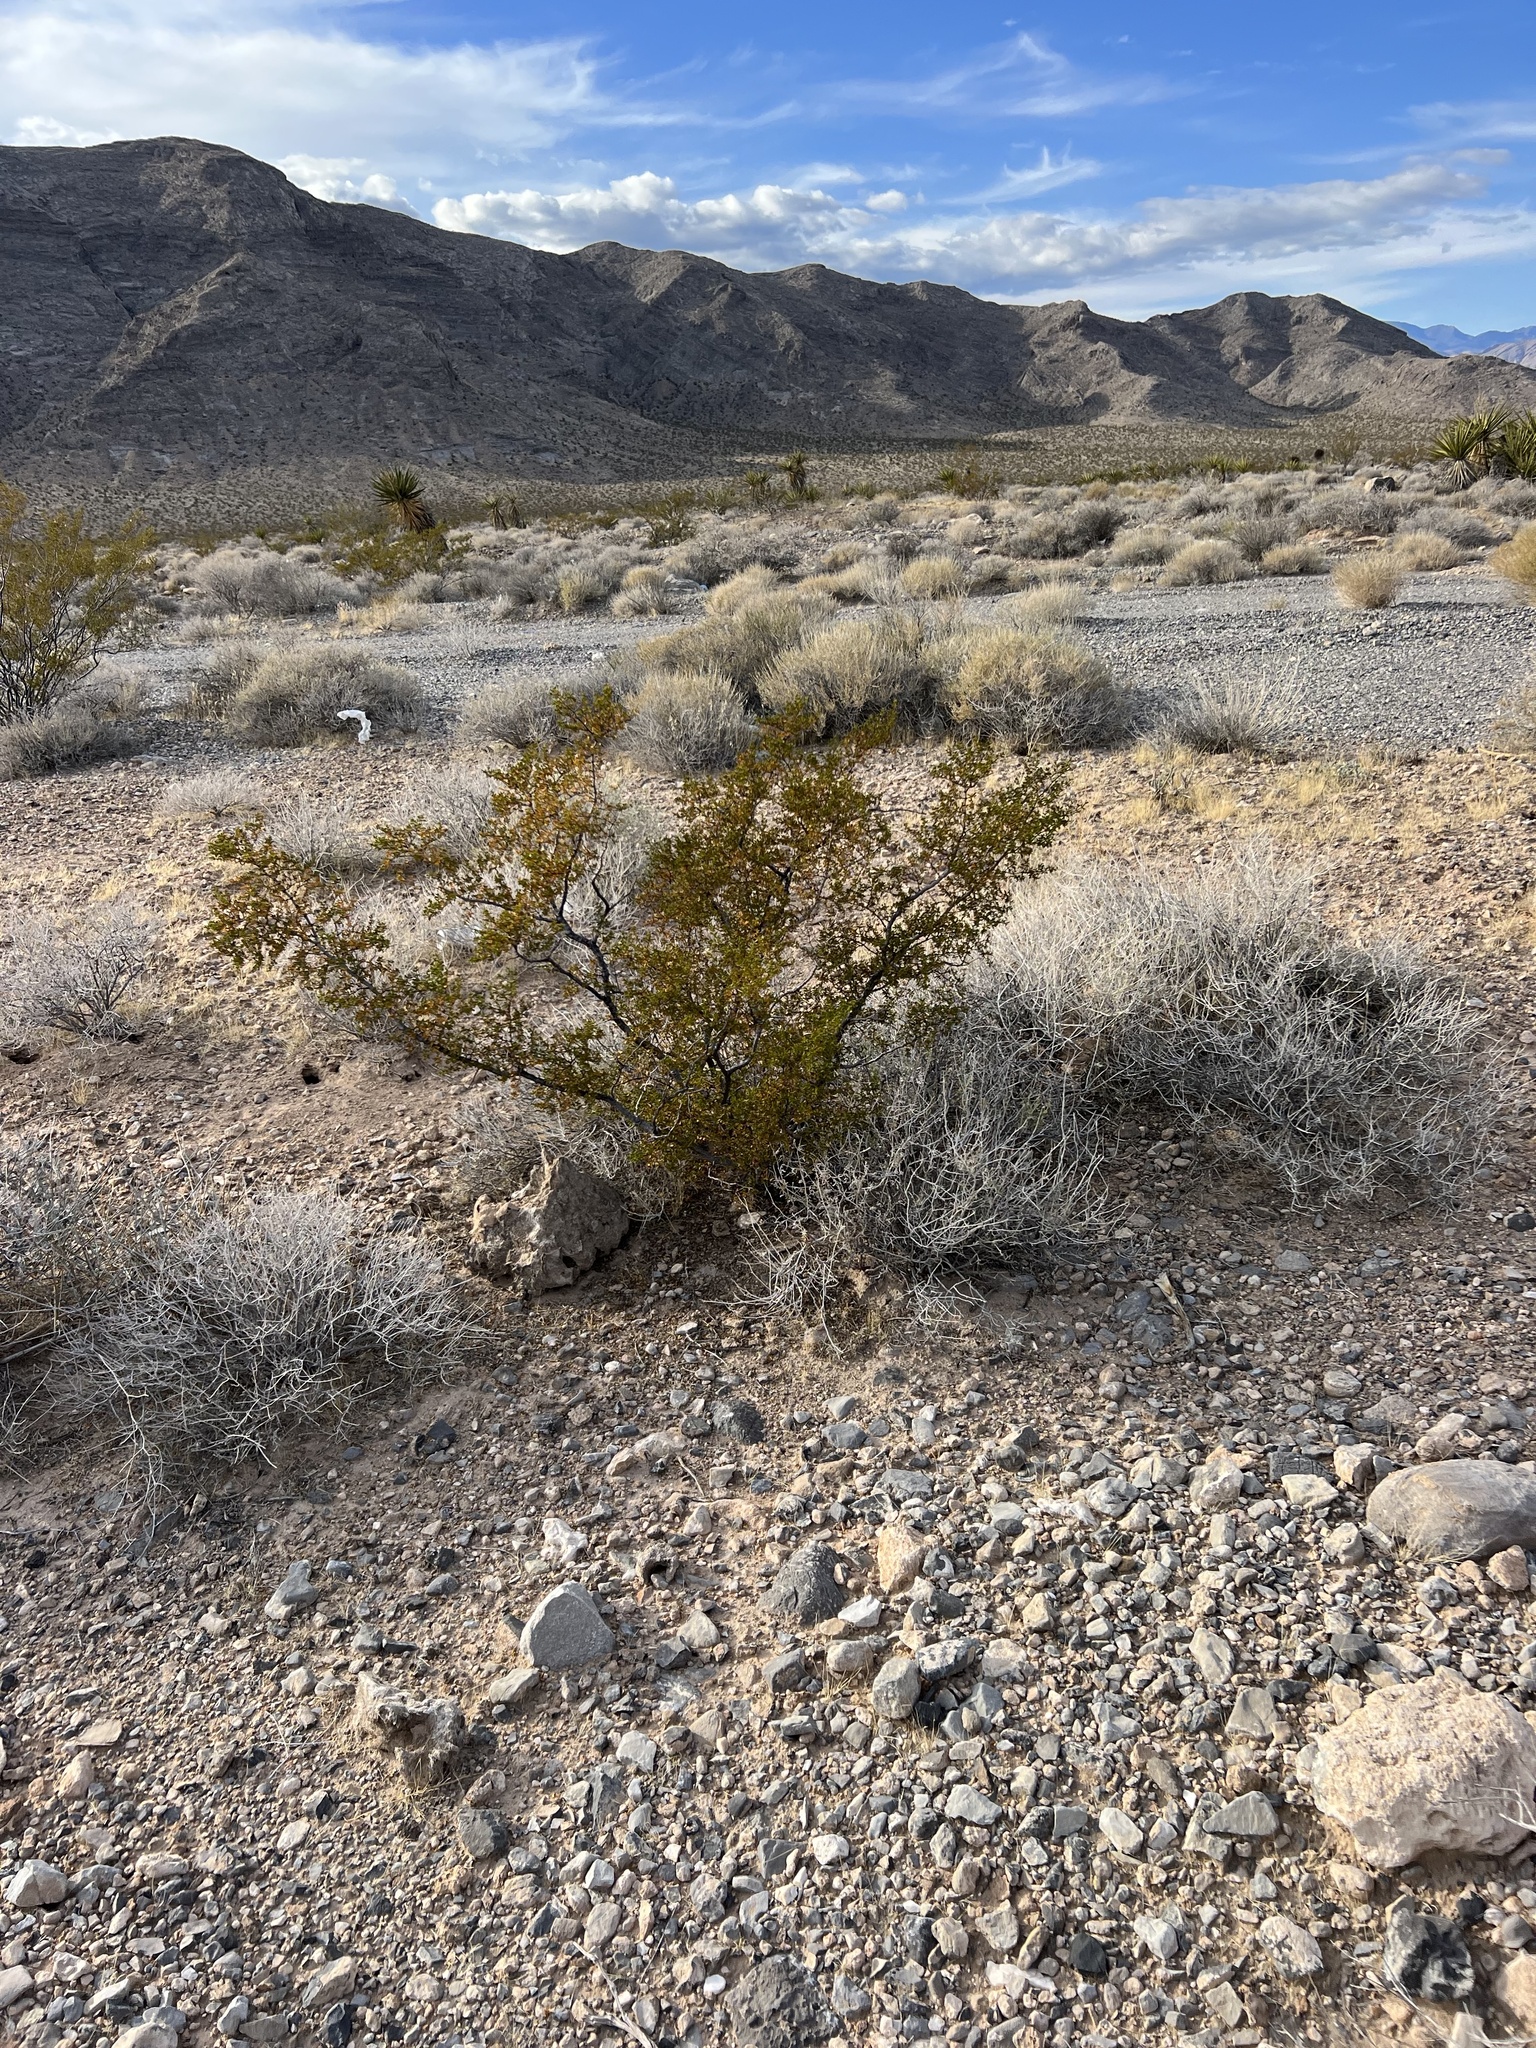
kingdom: Plantae
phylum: Tracheophyta
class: Magnoliopsida
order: Zygophyllales
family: Zygophyllaceae
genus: Larrea
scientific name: Larrea tridentata
